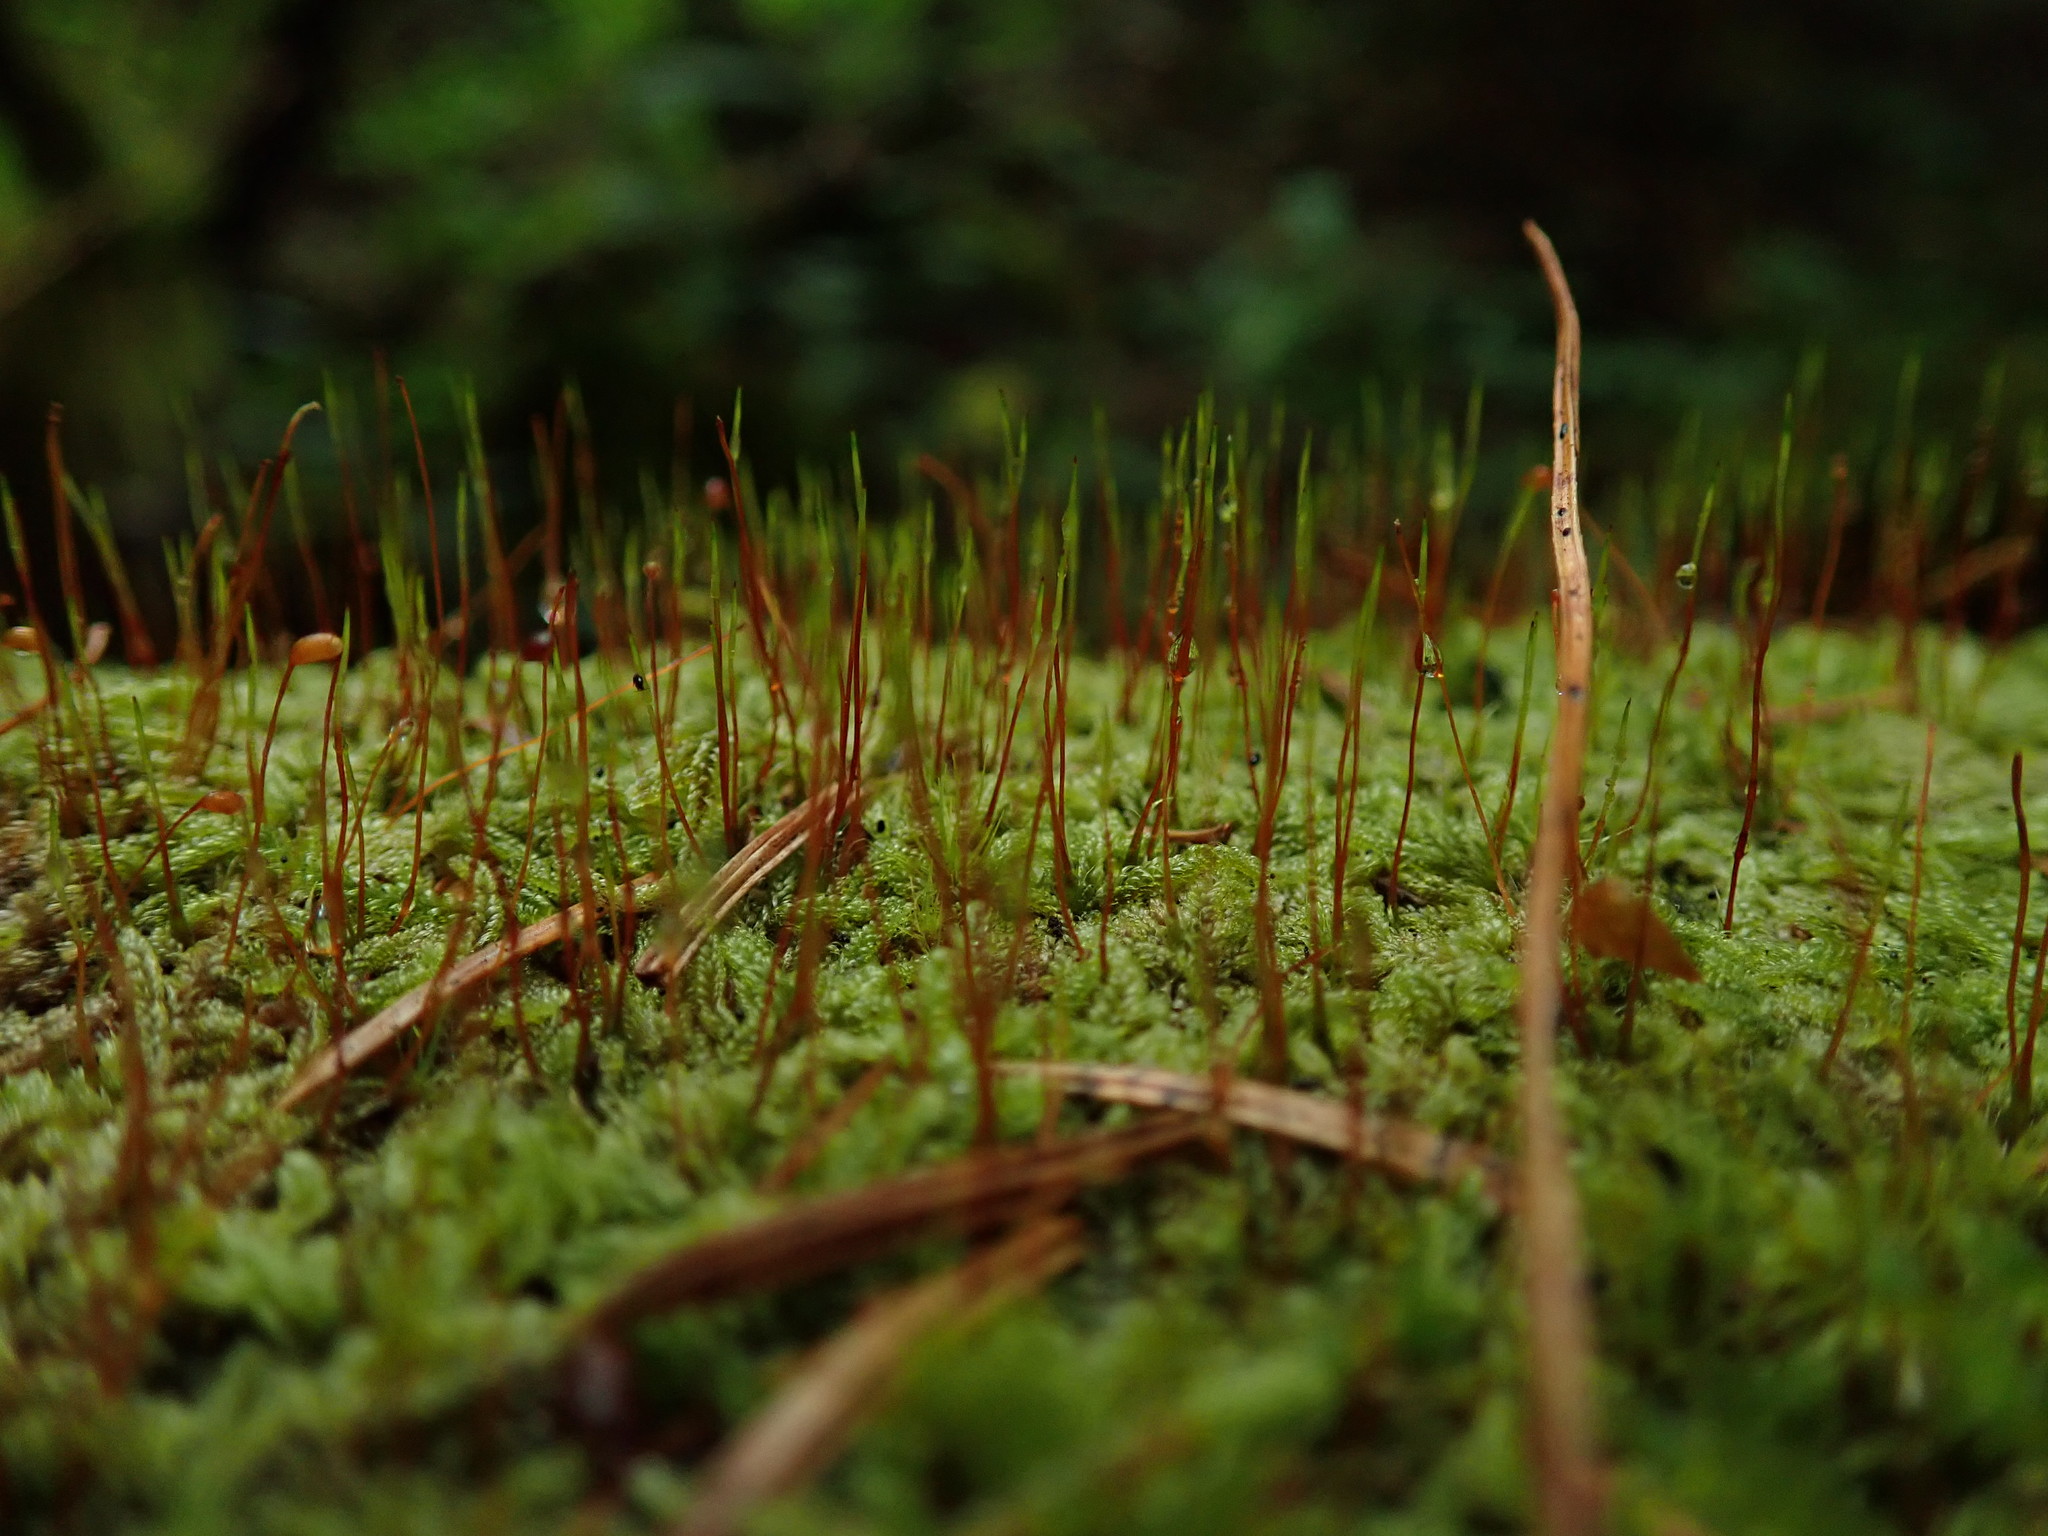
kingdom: Plantae
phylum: Bryophyta
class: Bryopsida
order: Hypnales
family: Pylaisiadelphaceae
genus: Trochophyllohypnum
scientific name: Trochophyllohypnum circinale
